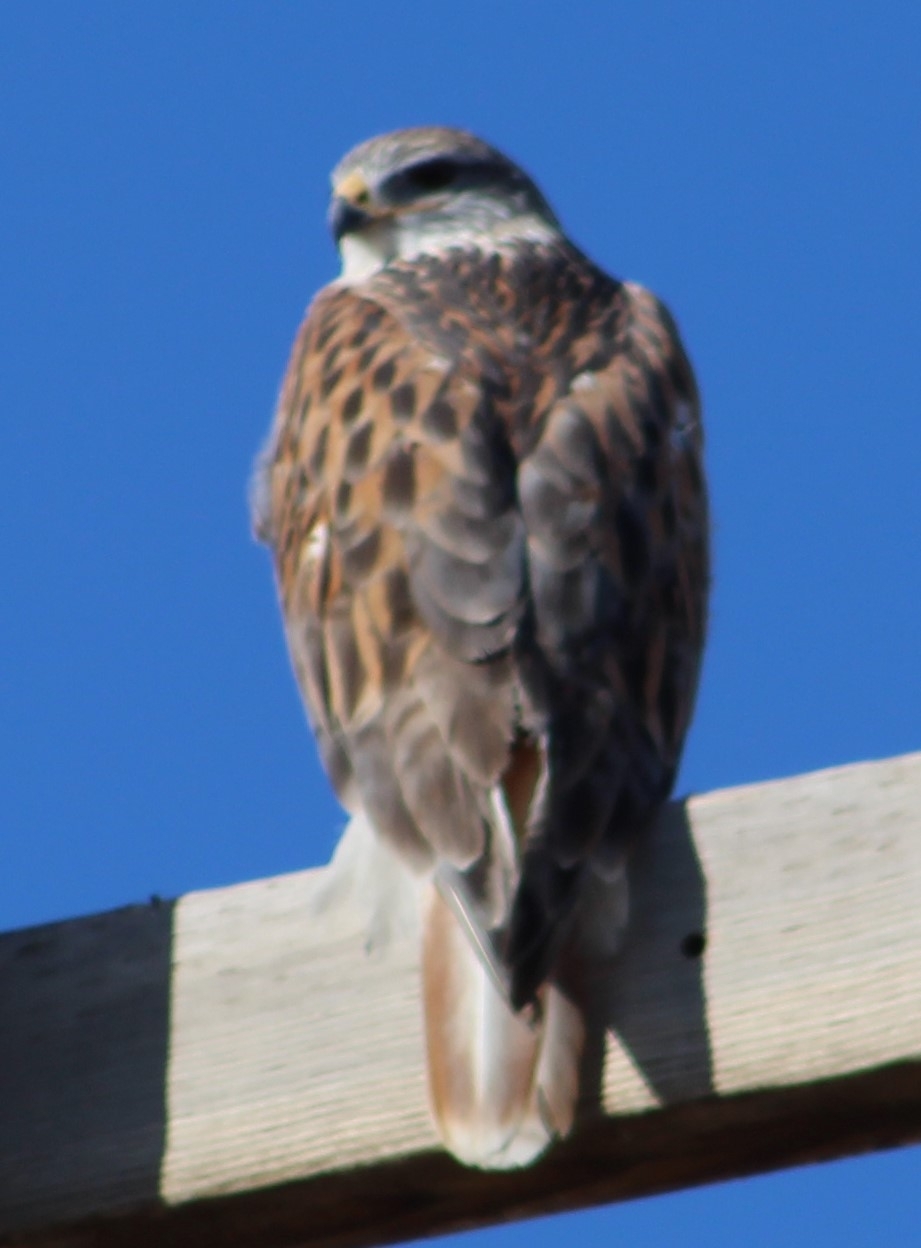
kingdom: Animalia
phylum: Chordata
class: Aves
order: Accipitriformes
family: Accipitridae
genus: Buteo
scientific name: Buteo regalis
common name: Ferruginous hawk
